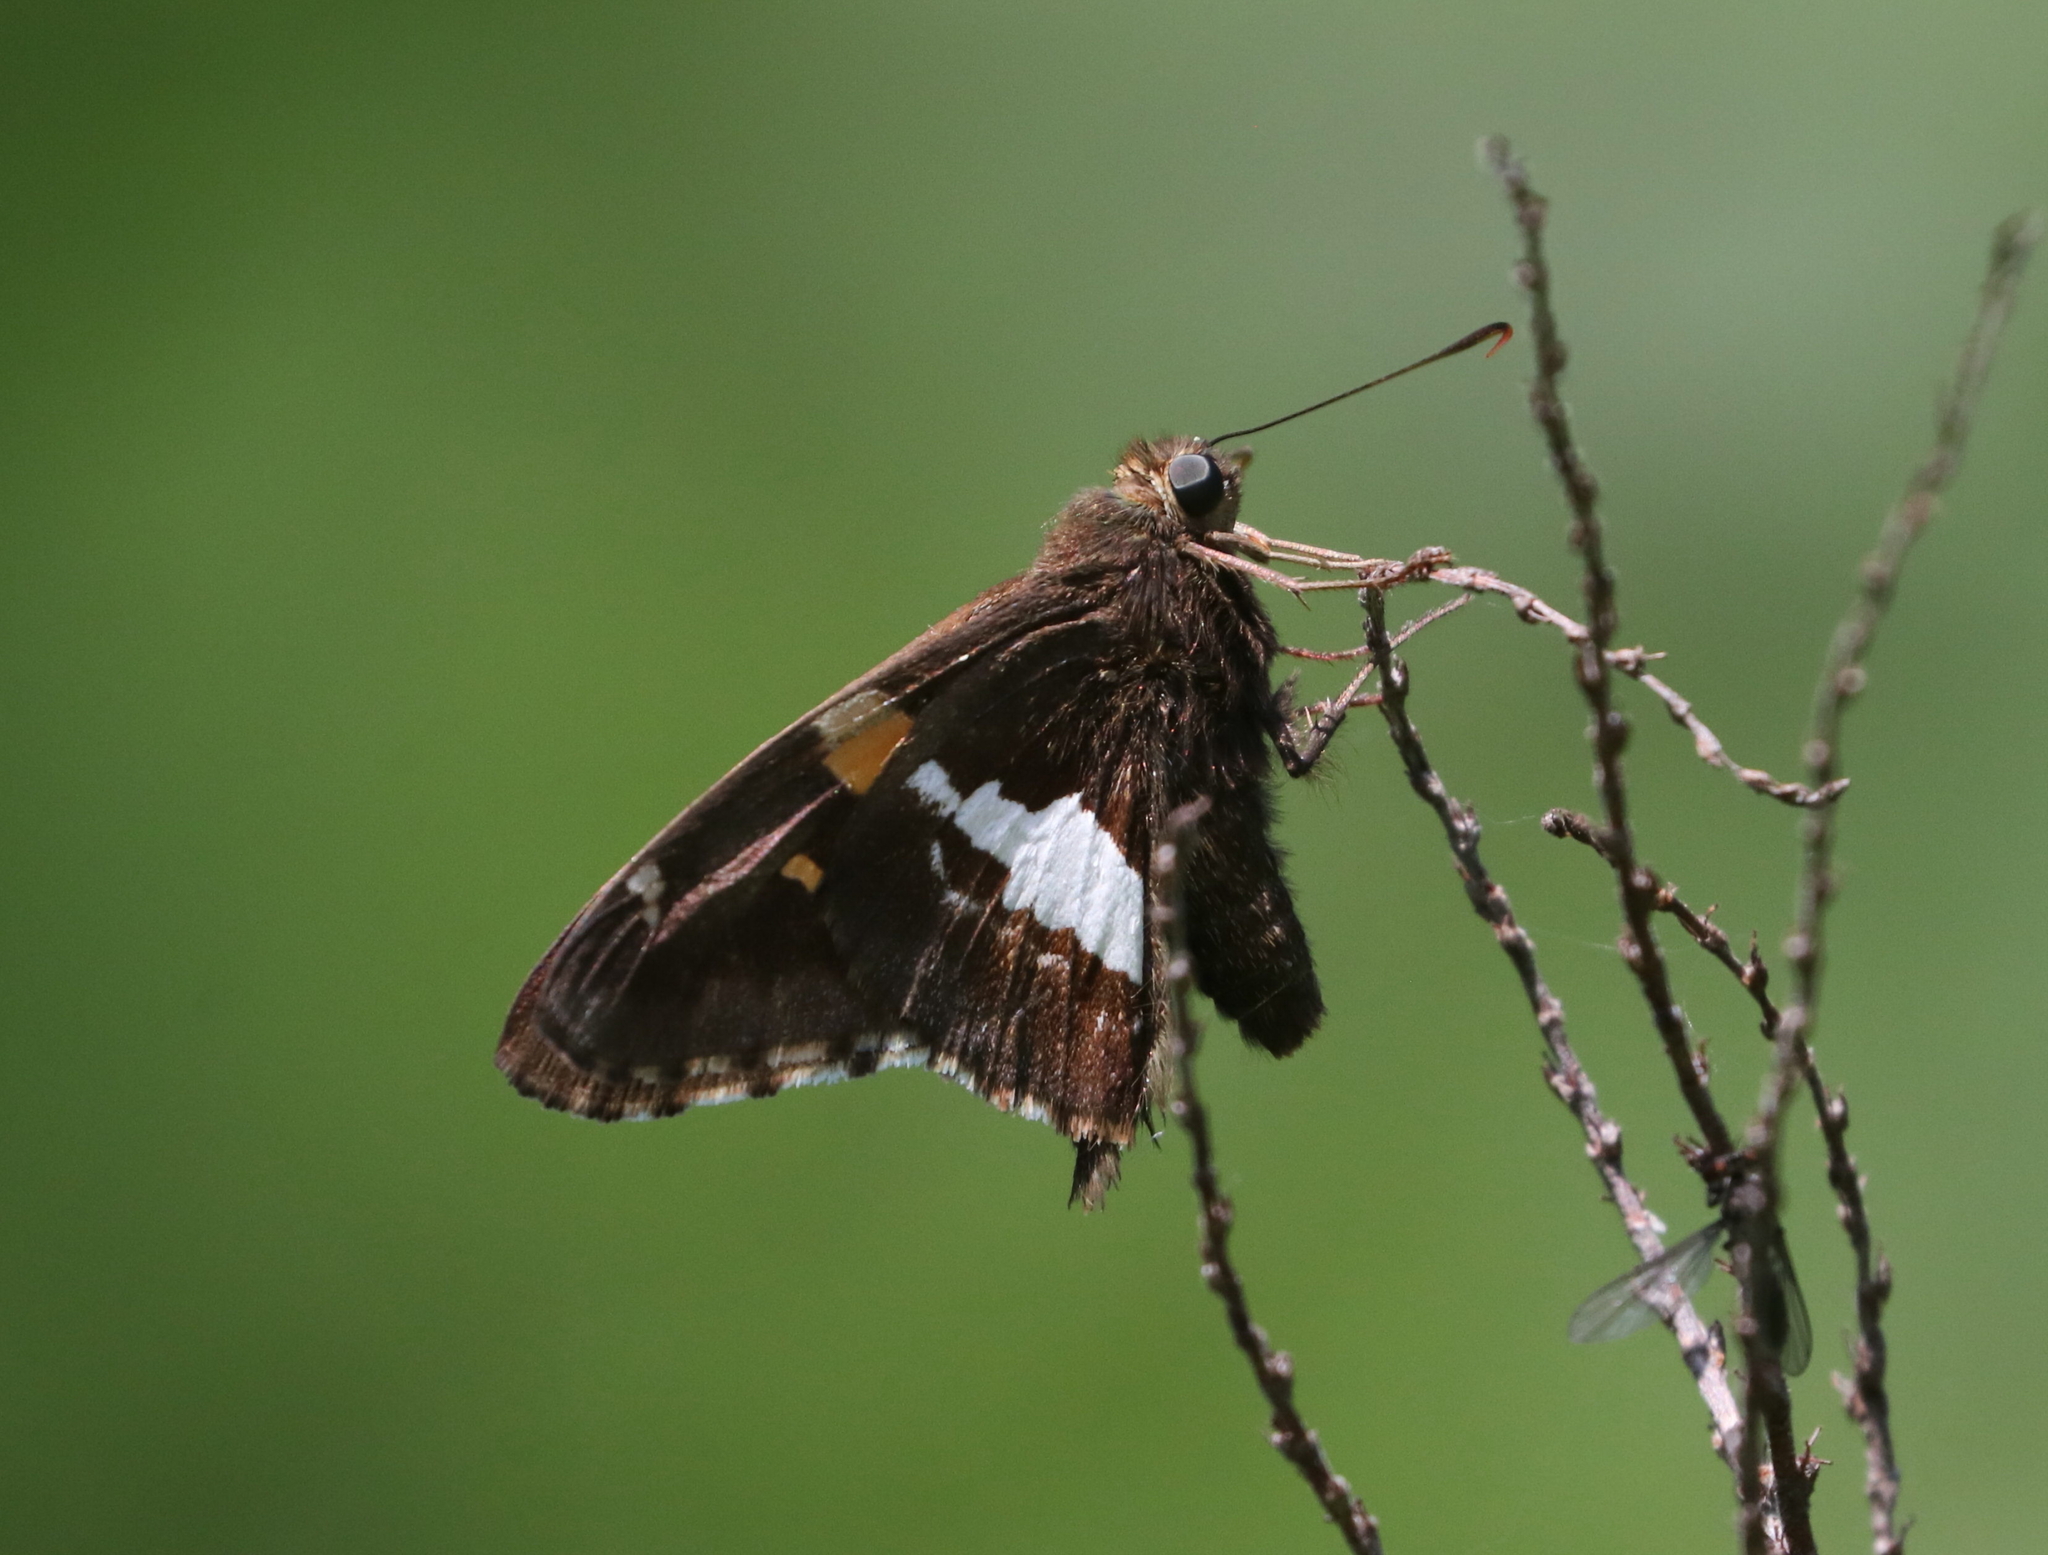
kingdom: Animalia
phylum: Arthropoda
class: Insecta
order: Lepidoptera
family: Hesperiidae
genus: Epargyreus
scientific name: Epargyreus clarus
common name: Silver-spotted skipper
